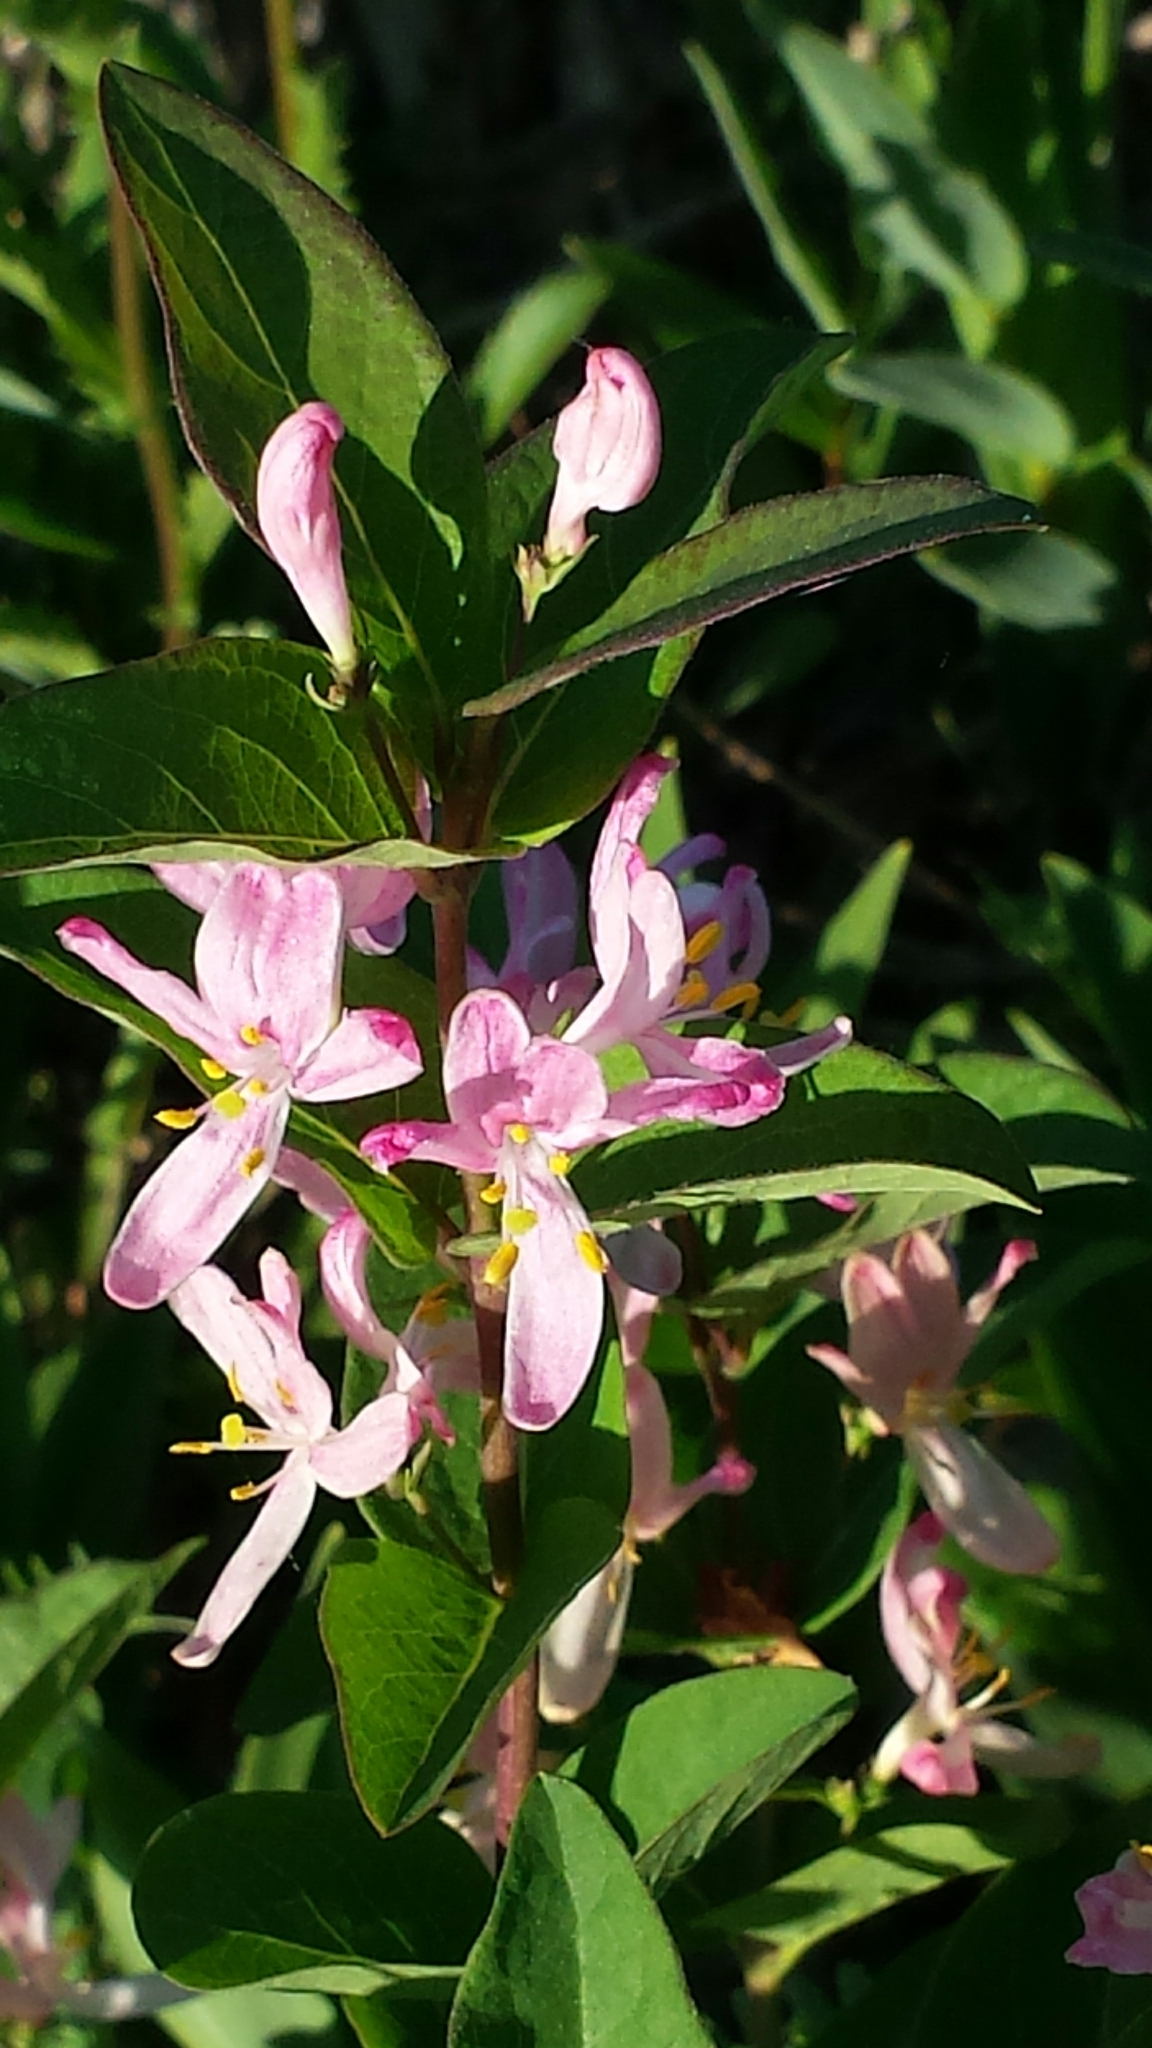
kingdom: Plantae
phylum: Tracheophyta
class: Magnoliopsida
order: Dipsacales
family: Caprifoliaceae
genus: Lonicera
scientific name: Lonicera tatarica
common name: Tatarian honeysuckle
